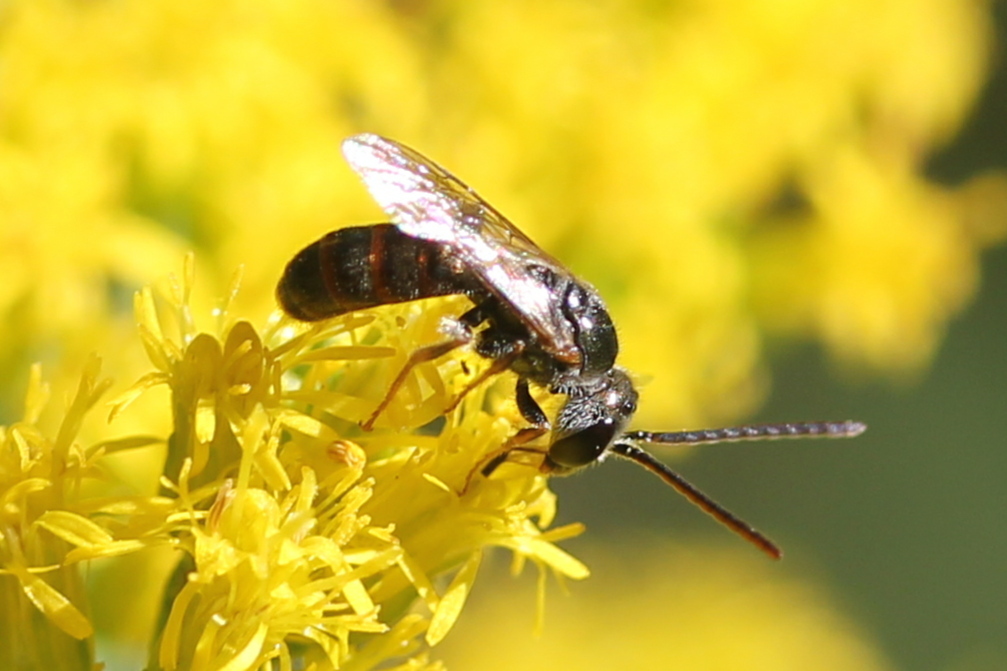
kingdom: Animalia
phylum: Arthropoda
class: Insecta
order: Hymenoptera
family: Halictidae
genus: Lasioglossum
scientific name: Lasioglossum zephyrum
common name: Zephyr sweat bee
